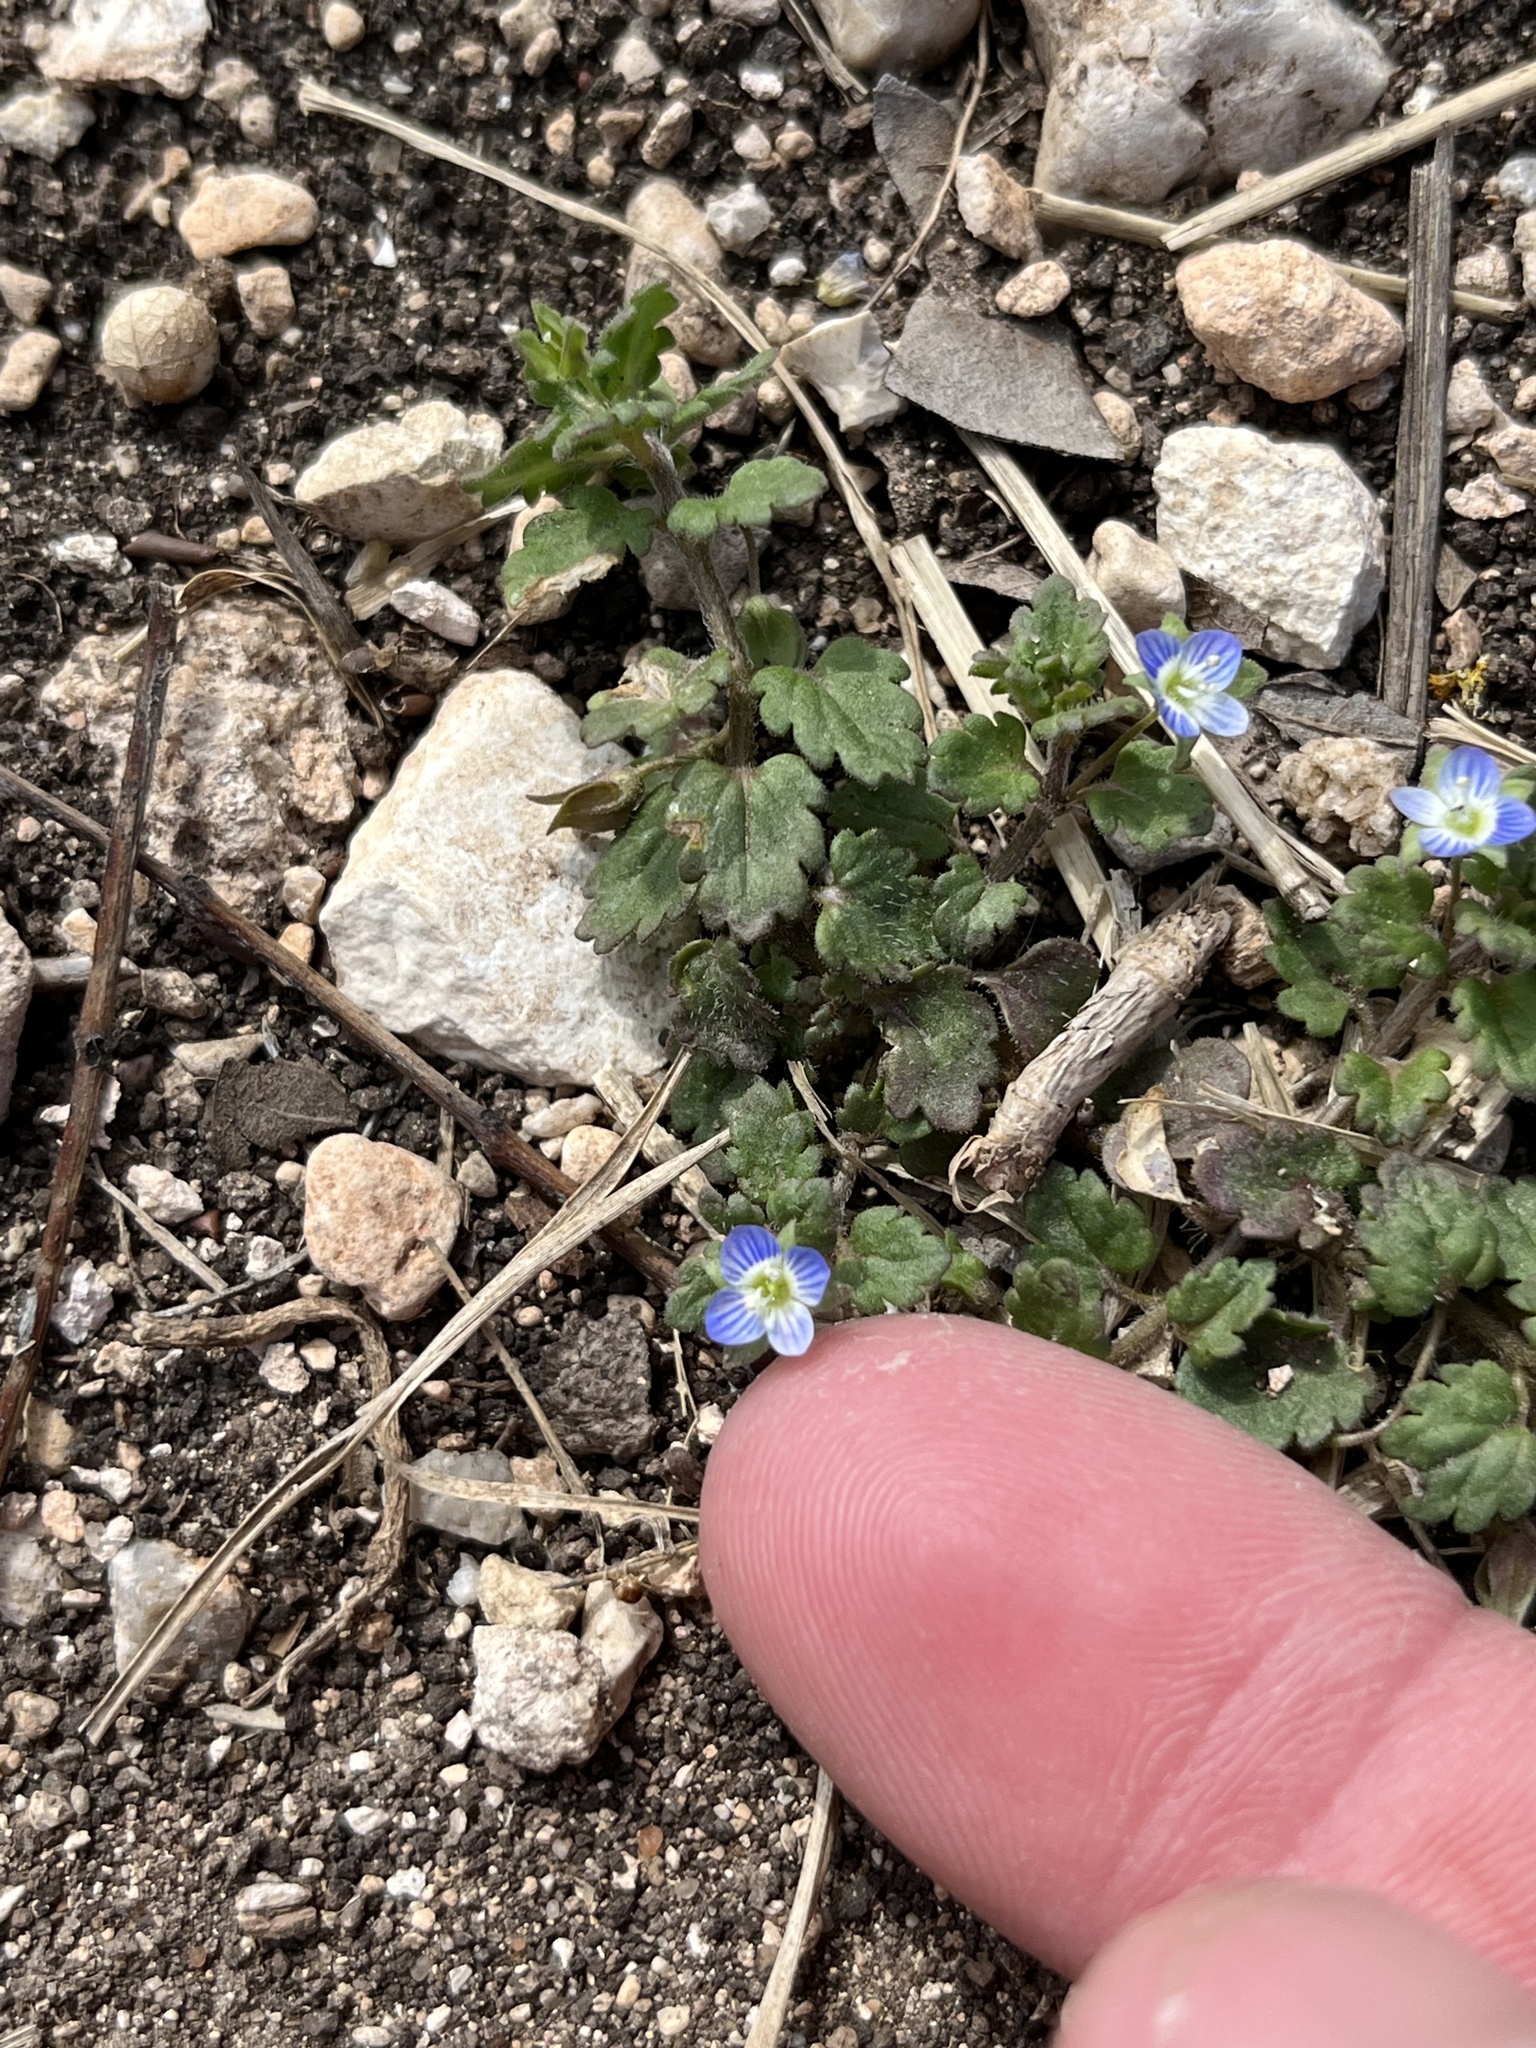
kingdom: Plantae
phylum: Tracheophyta
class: Magnoliopsida
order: Lamiales
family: Plantaginaceae
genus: Veronica
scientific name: Veronica polita
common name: Grey field-speedwell
